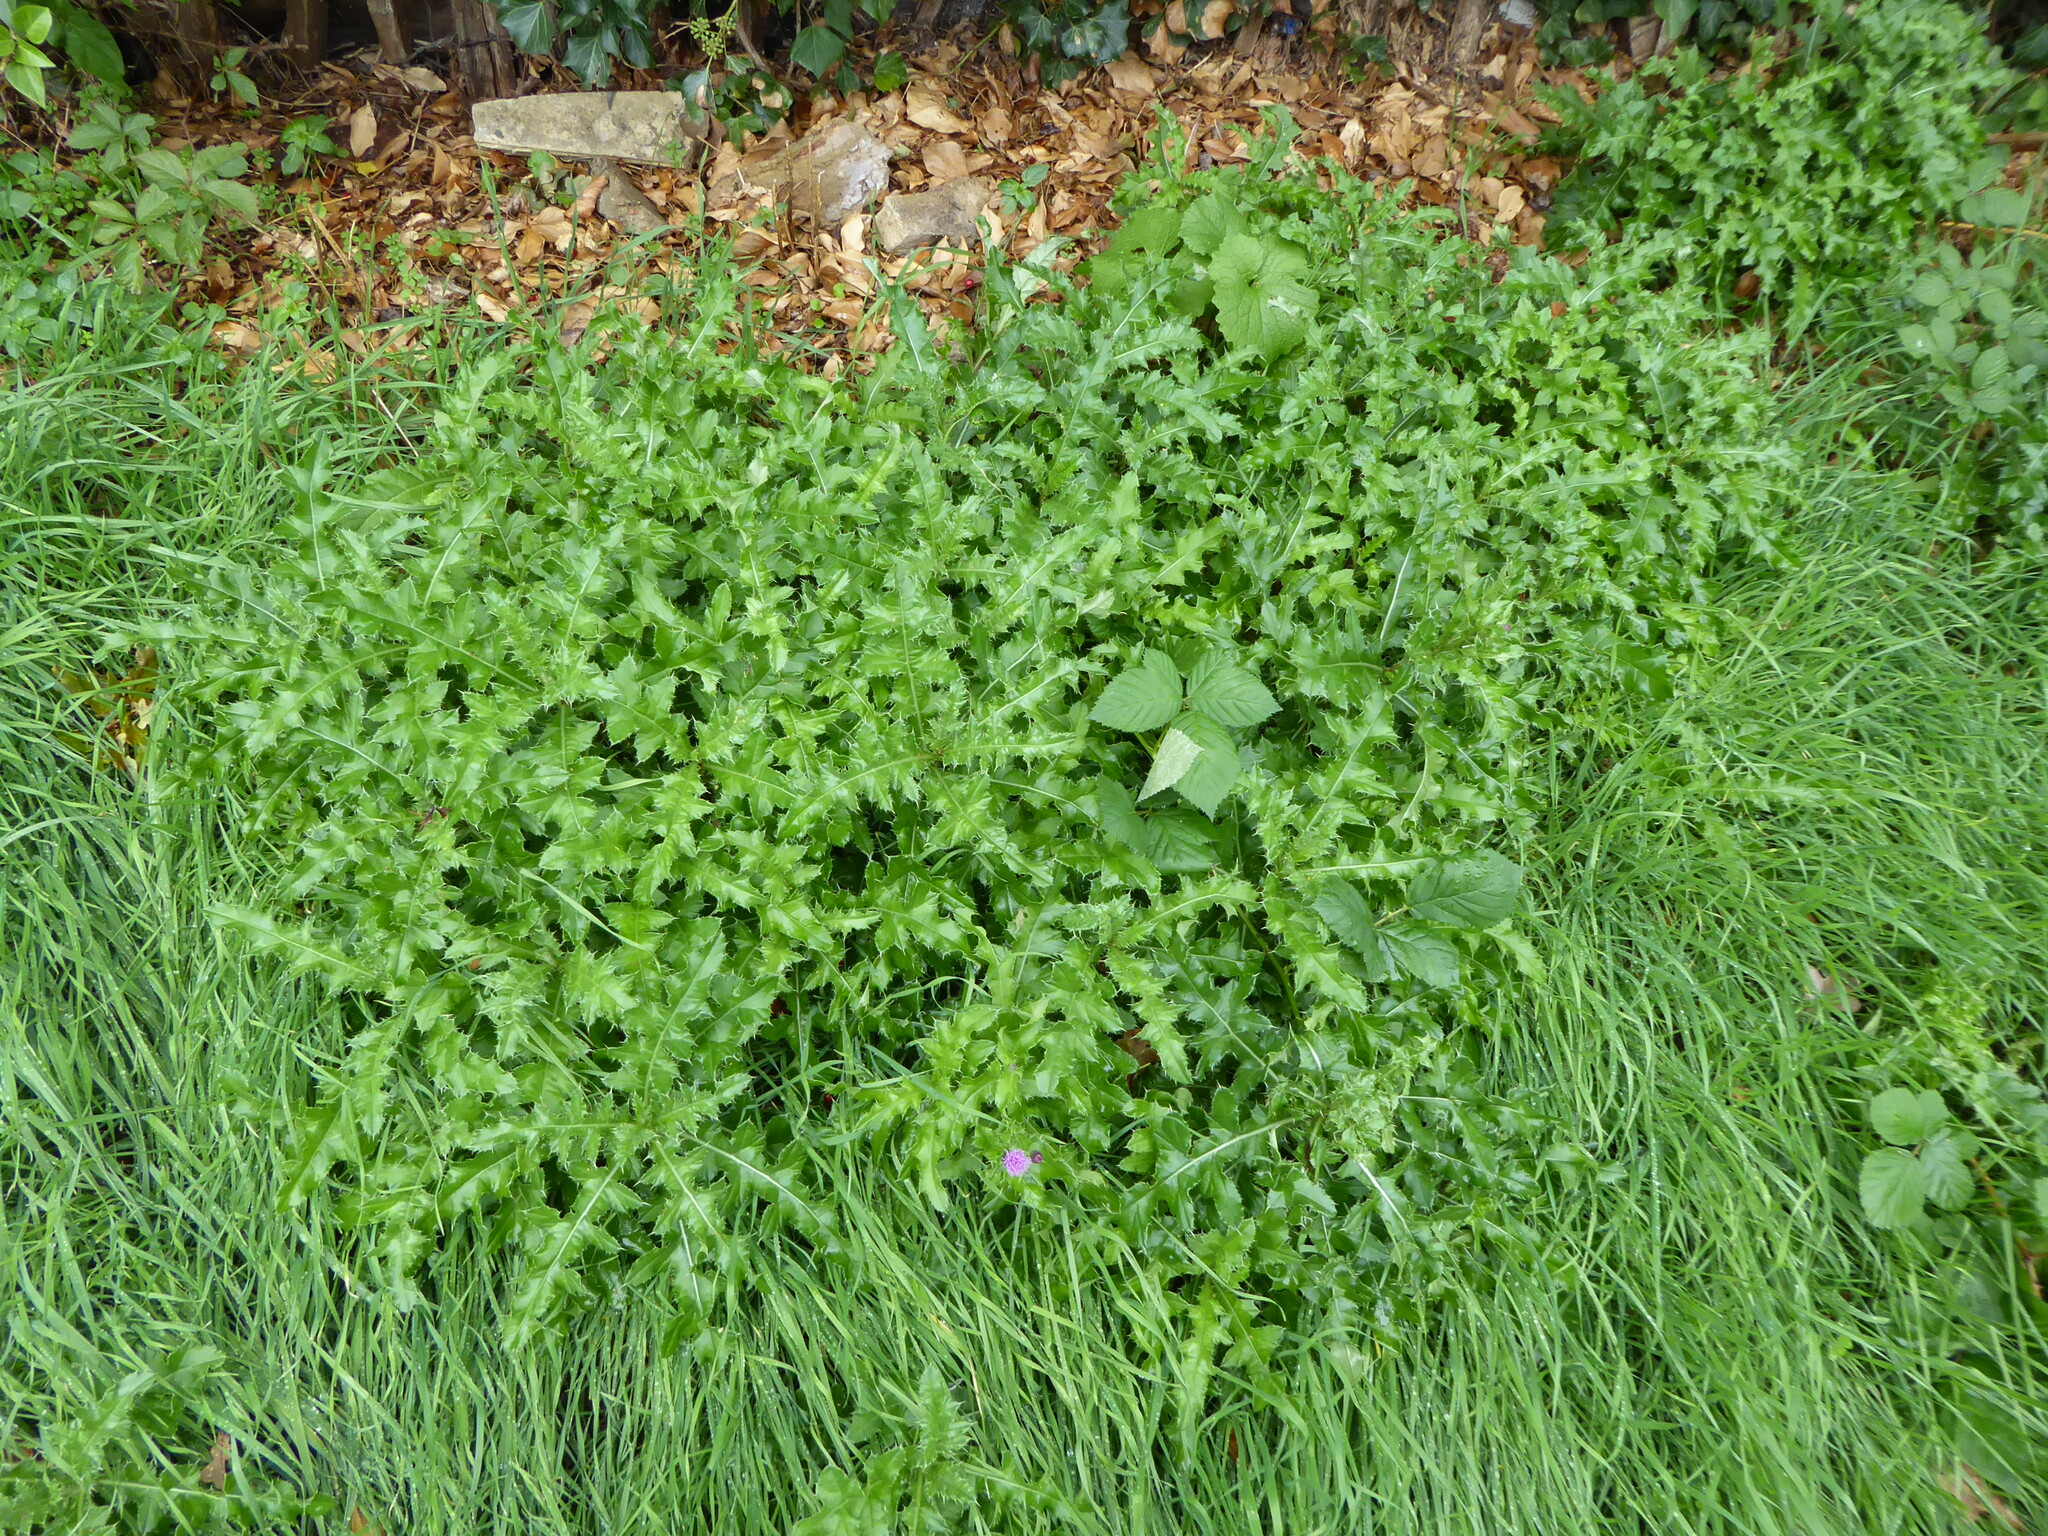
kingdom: Plantae
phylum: Tracheophyta
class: Magnoliopsida
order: Asterales
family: Asteraceae
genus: Cirsium
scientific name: Cirsium arvense
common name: Creeping thistle
